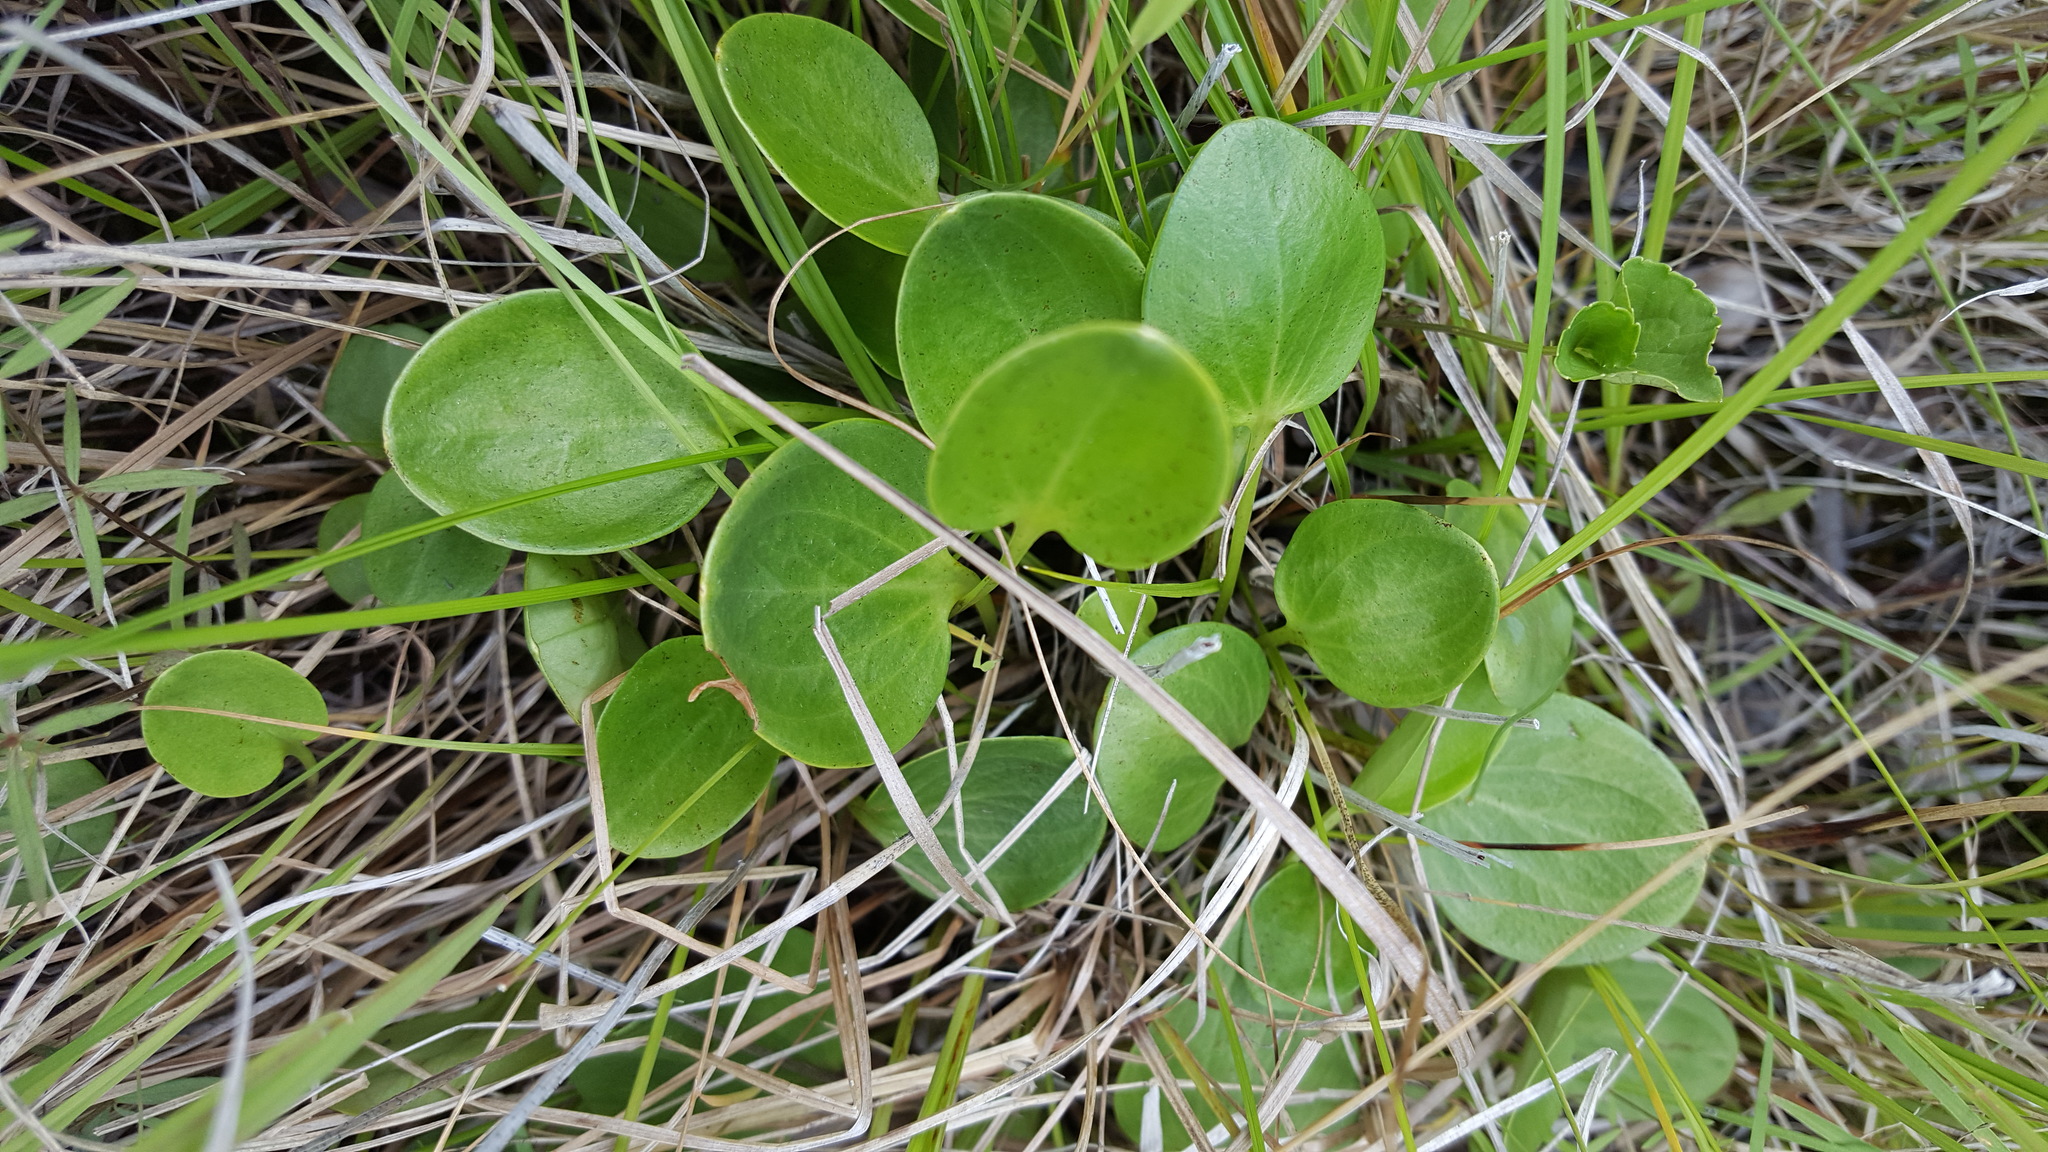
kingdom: Plantae
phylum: Tracheophyta
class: Magnoliopsida
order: Celastrales
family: Parnassiaceae
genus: Parnassia
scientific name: Parnassia glauca
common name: American grass-of-parnassus
